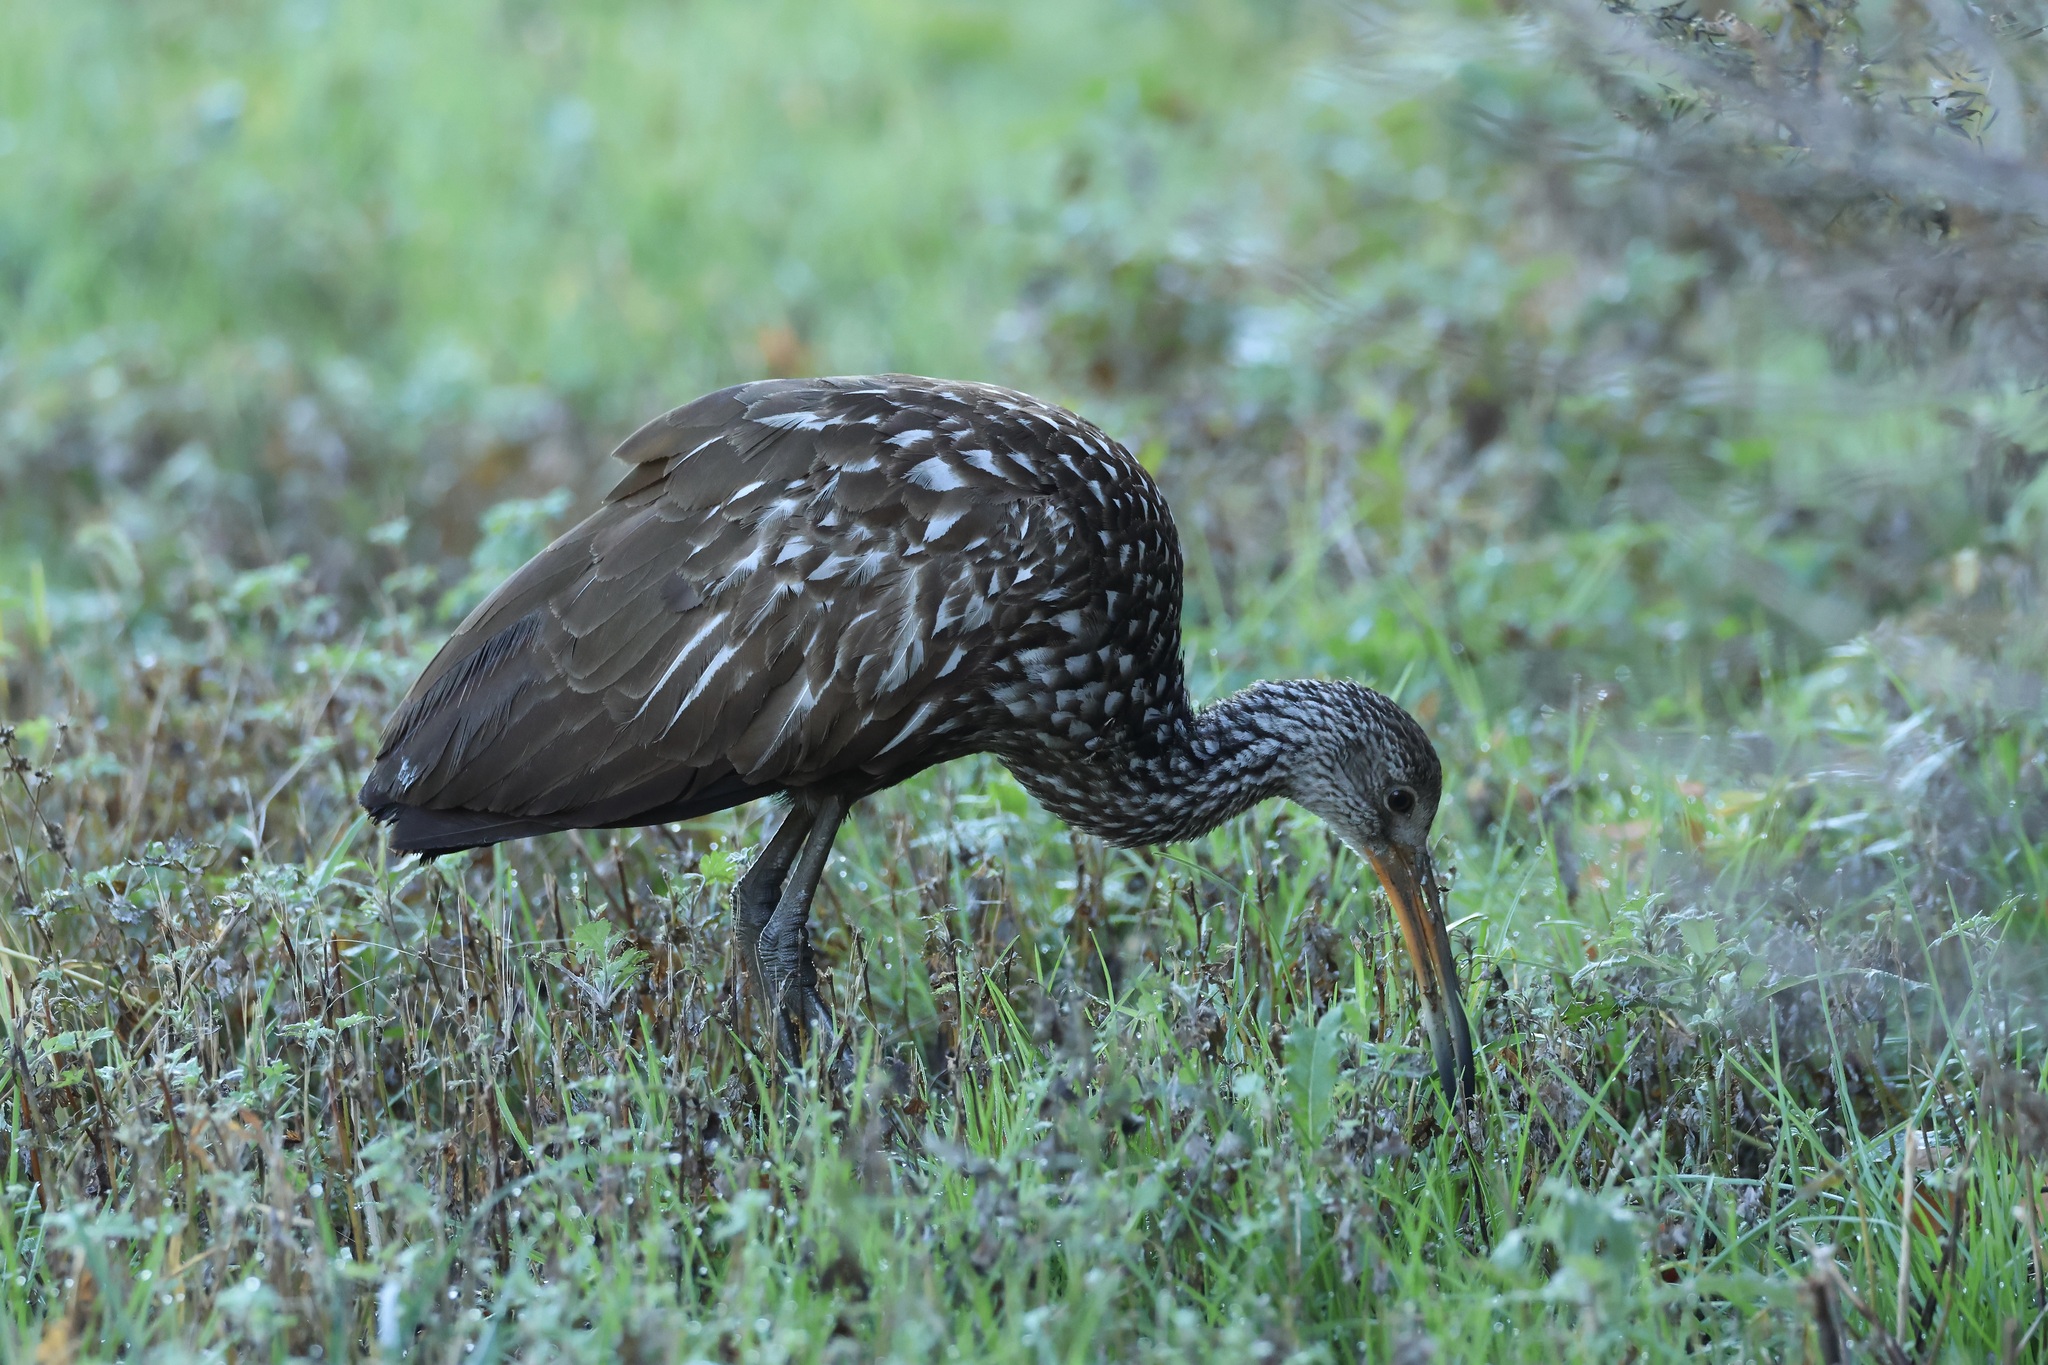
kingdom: Animalia
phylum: Chordata
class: Aves
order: Gruiformes
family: Aramidae
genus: Aramus
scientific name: Aramus guarauna
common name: Limpkin
